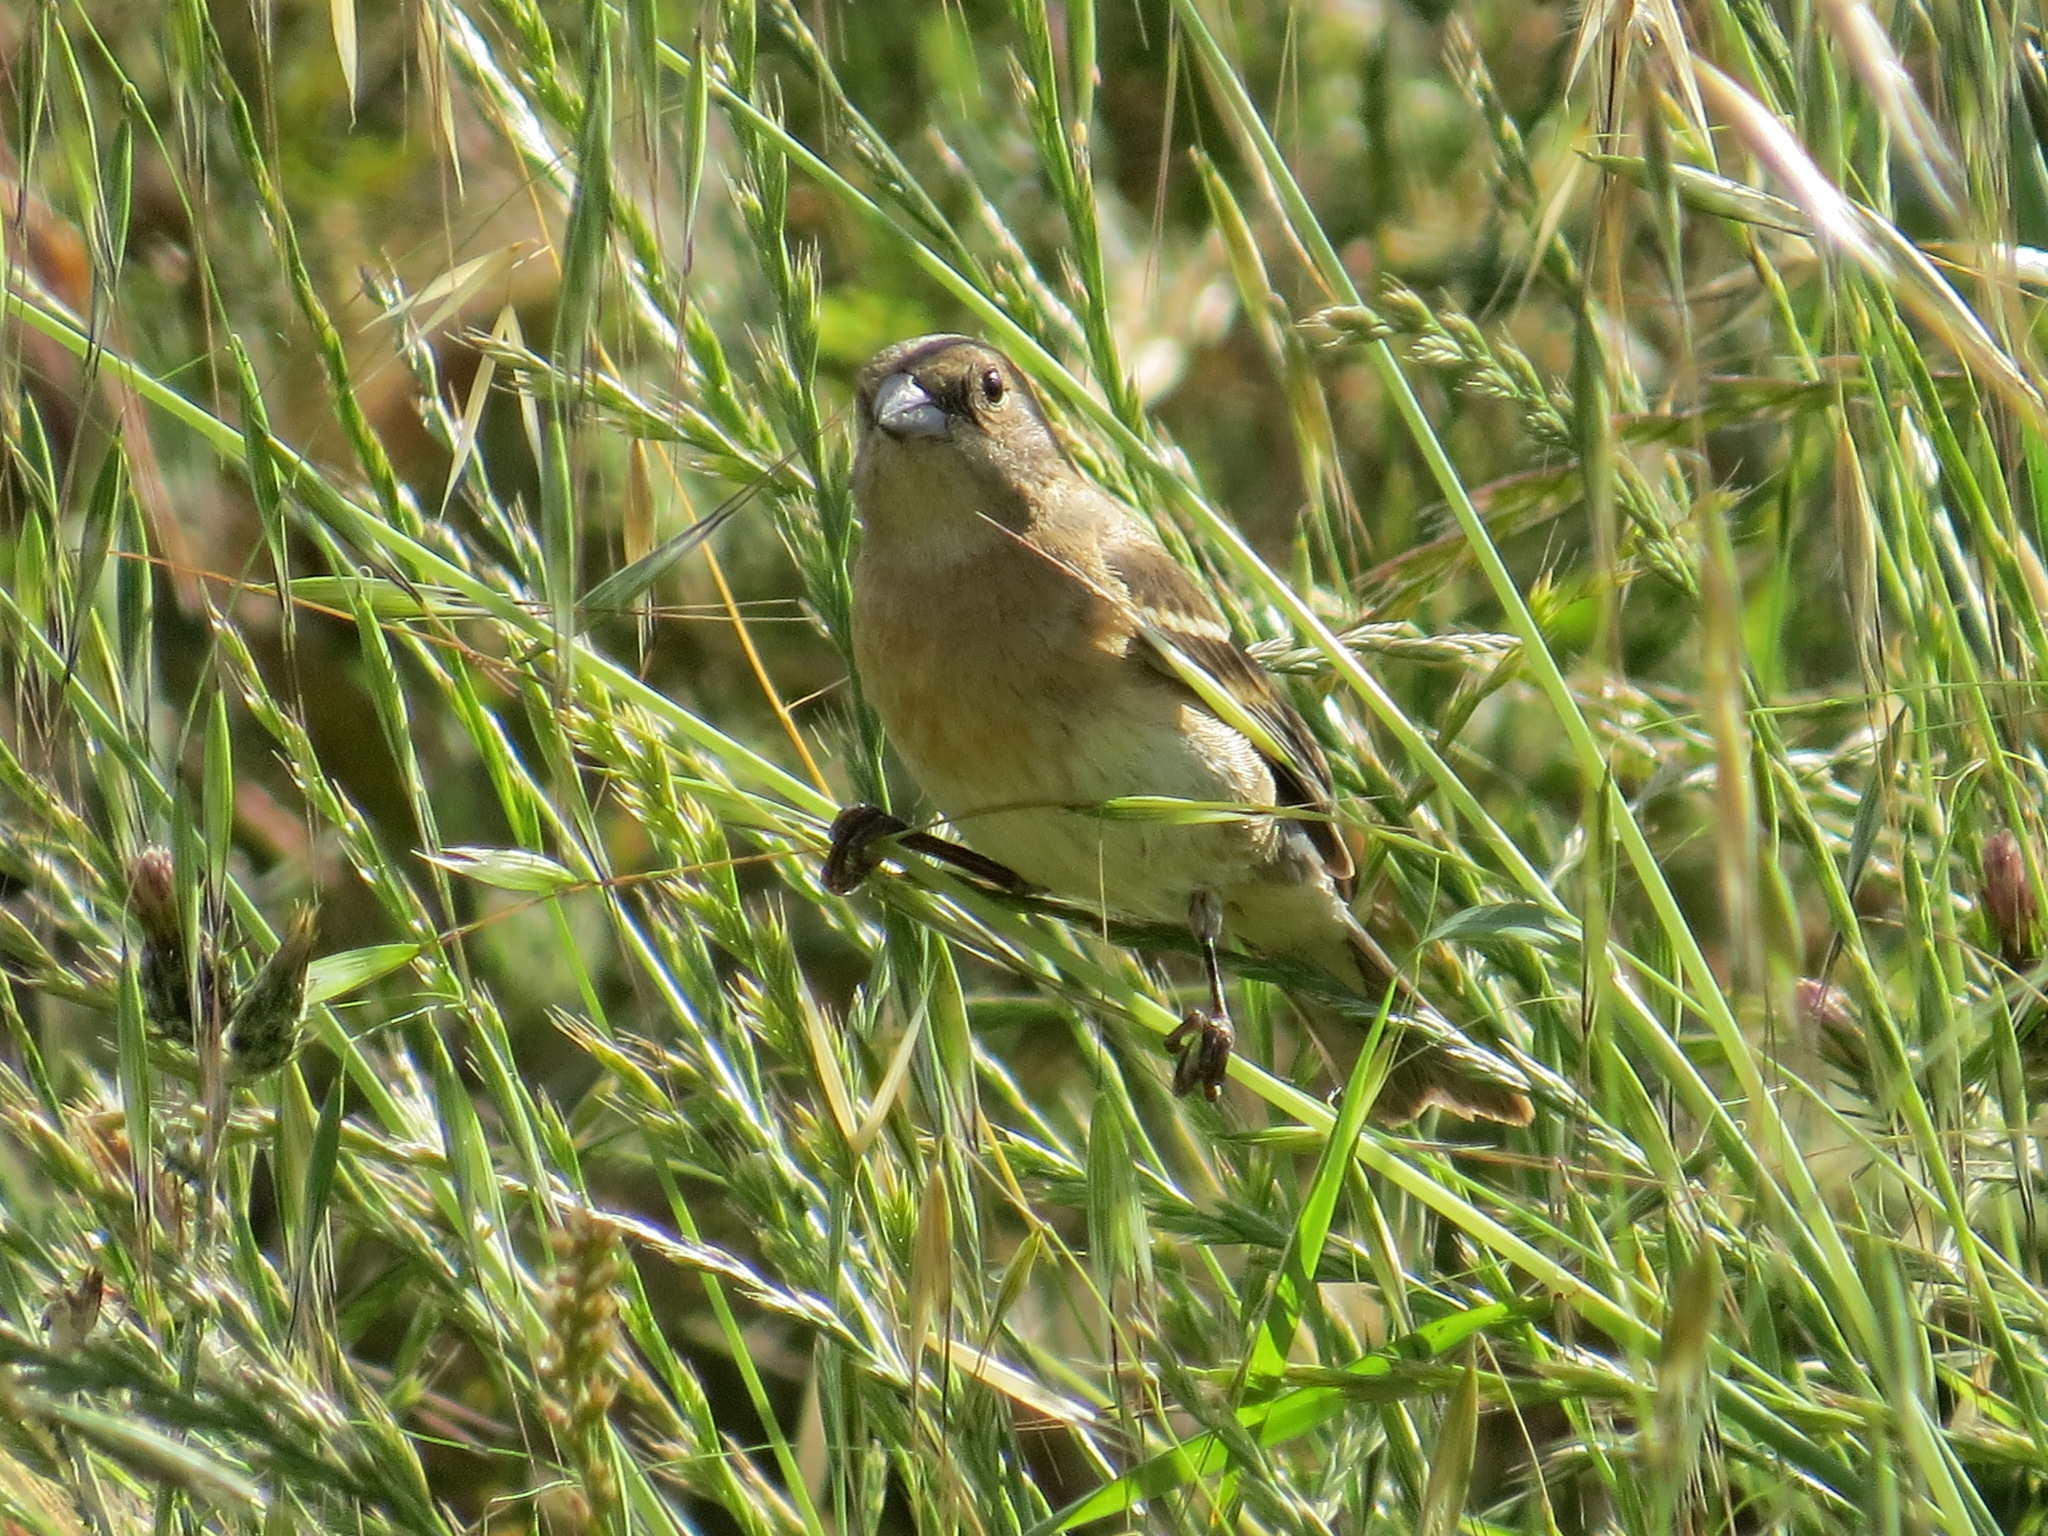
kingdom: Animalia
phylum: Chordata
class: Aves
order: Passeriformes
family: Cardinalidae
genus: Passerina
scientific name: Passerina amoena
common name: Lazuli bunting
